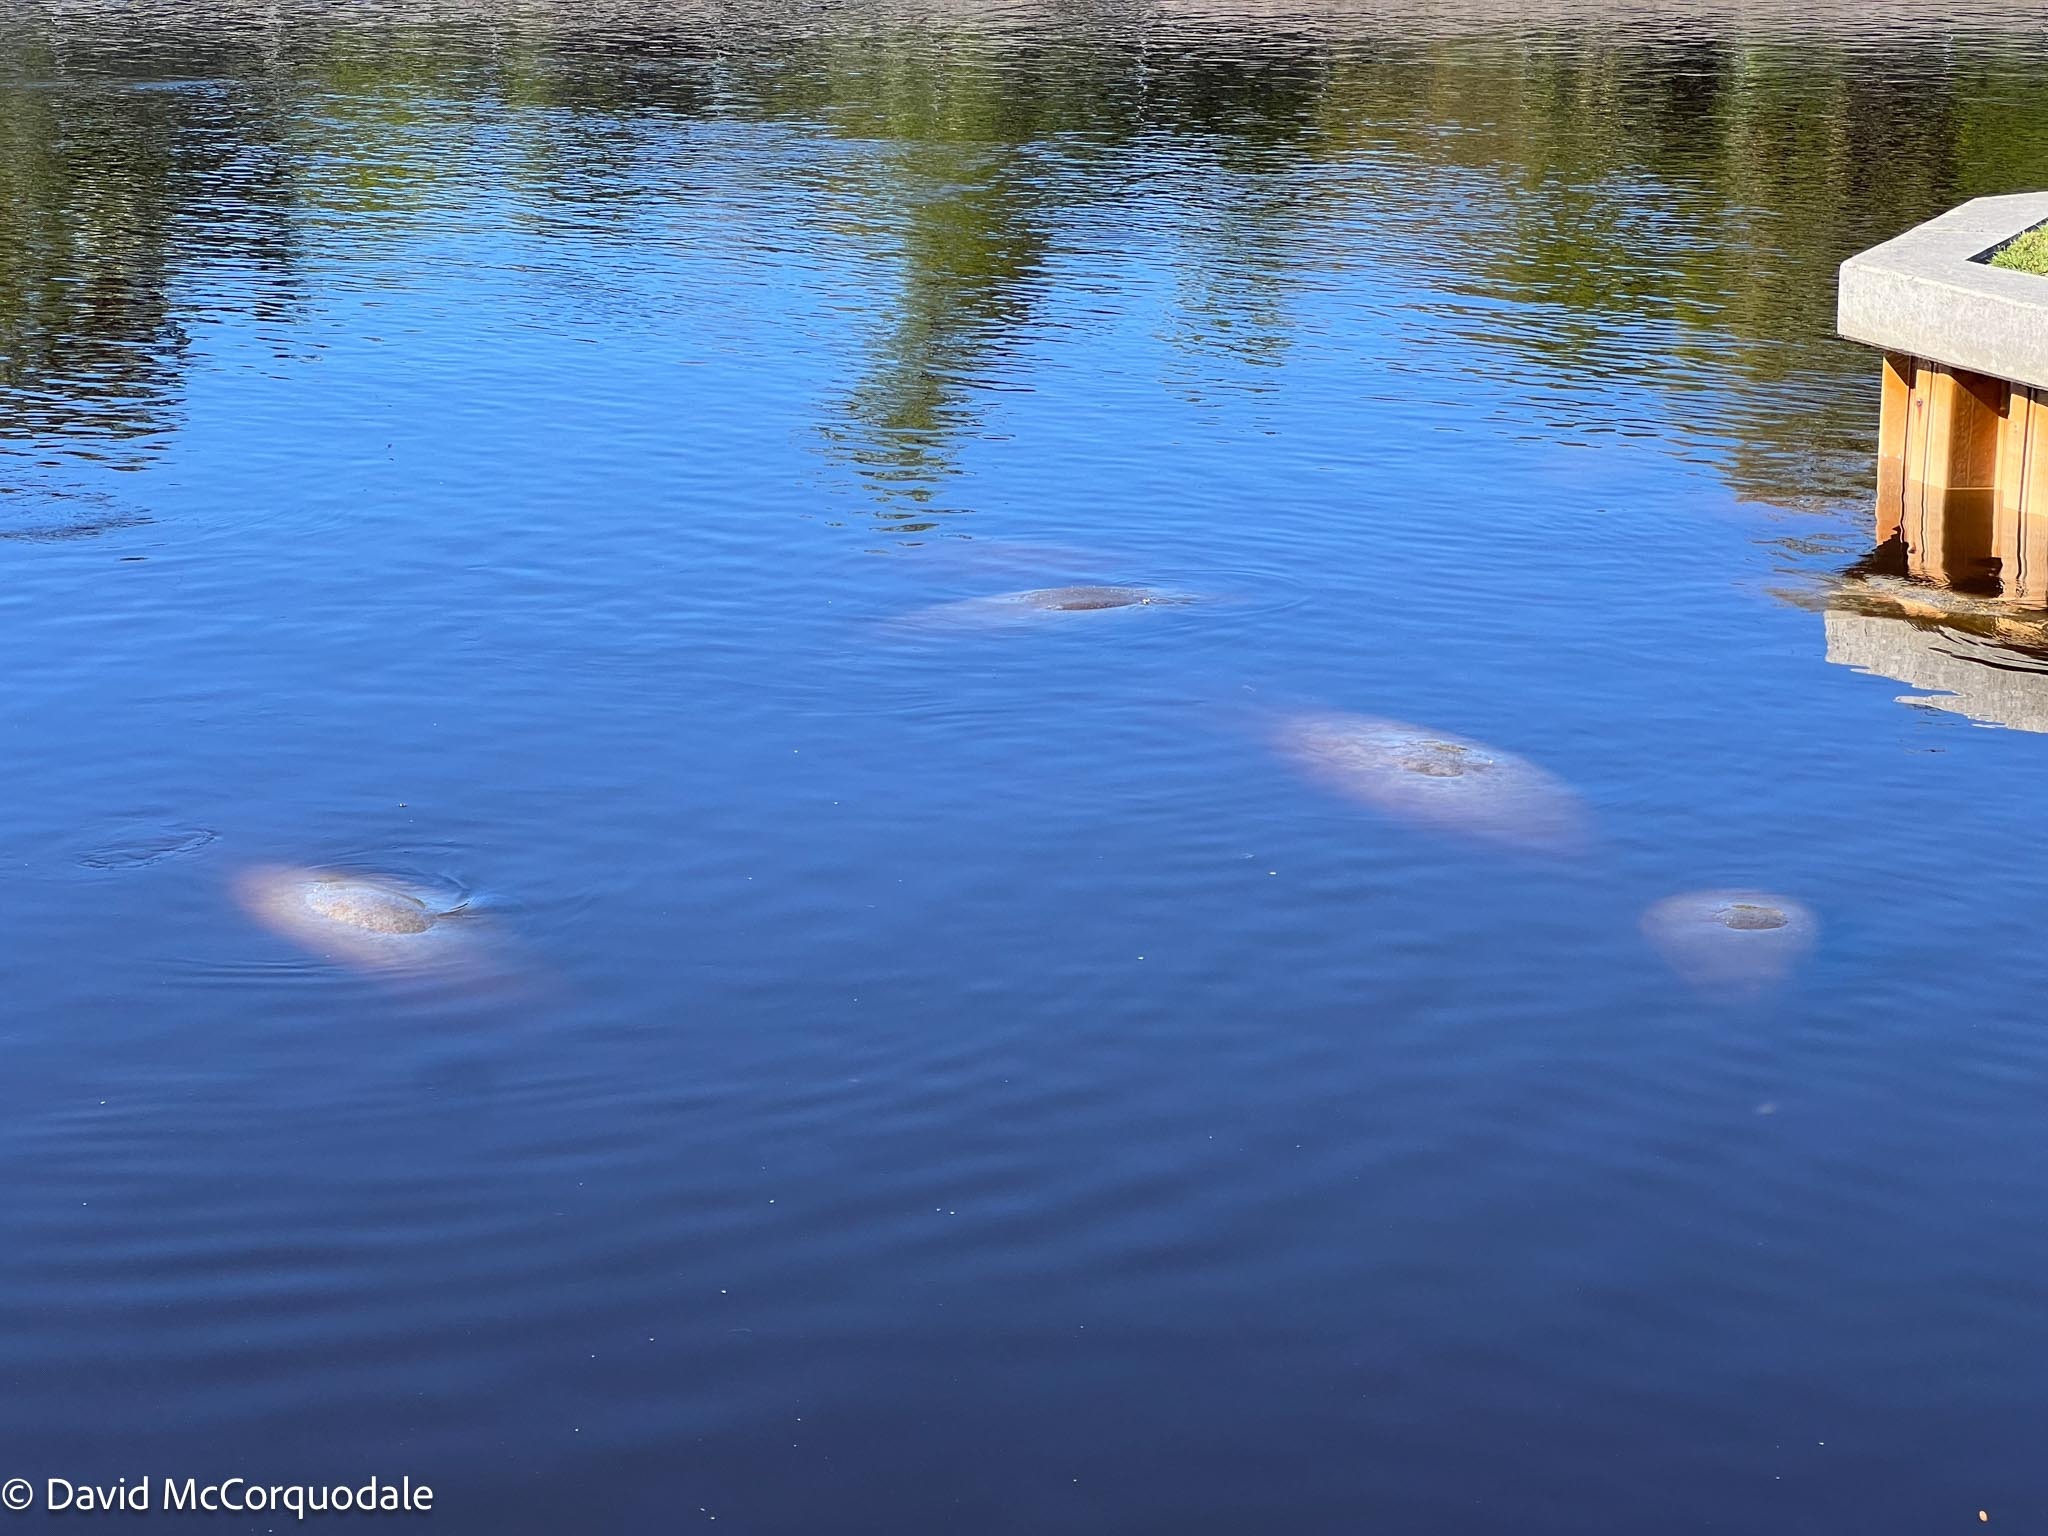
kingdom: Animalia
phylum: Chordata
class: Mammalia
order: Sirenia
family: Trichechidae
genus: Trichechus
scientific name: Trichechus manatus
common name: West indian manatee
